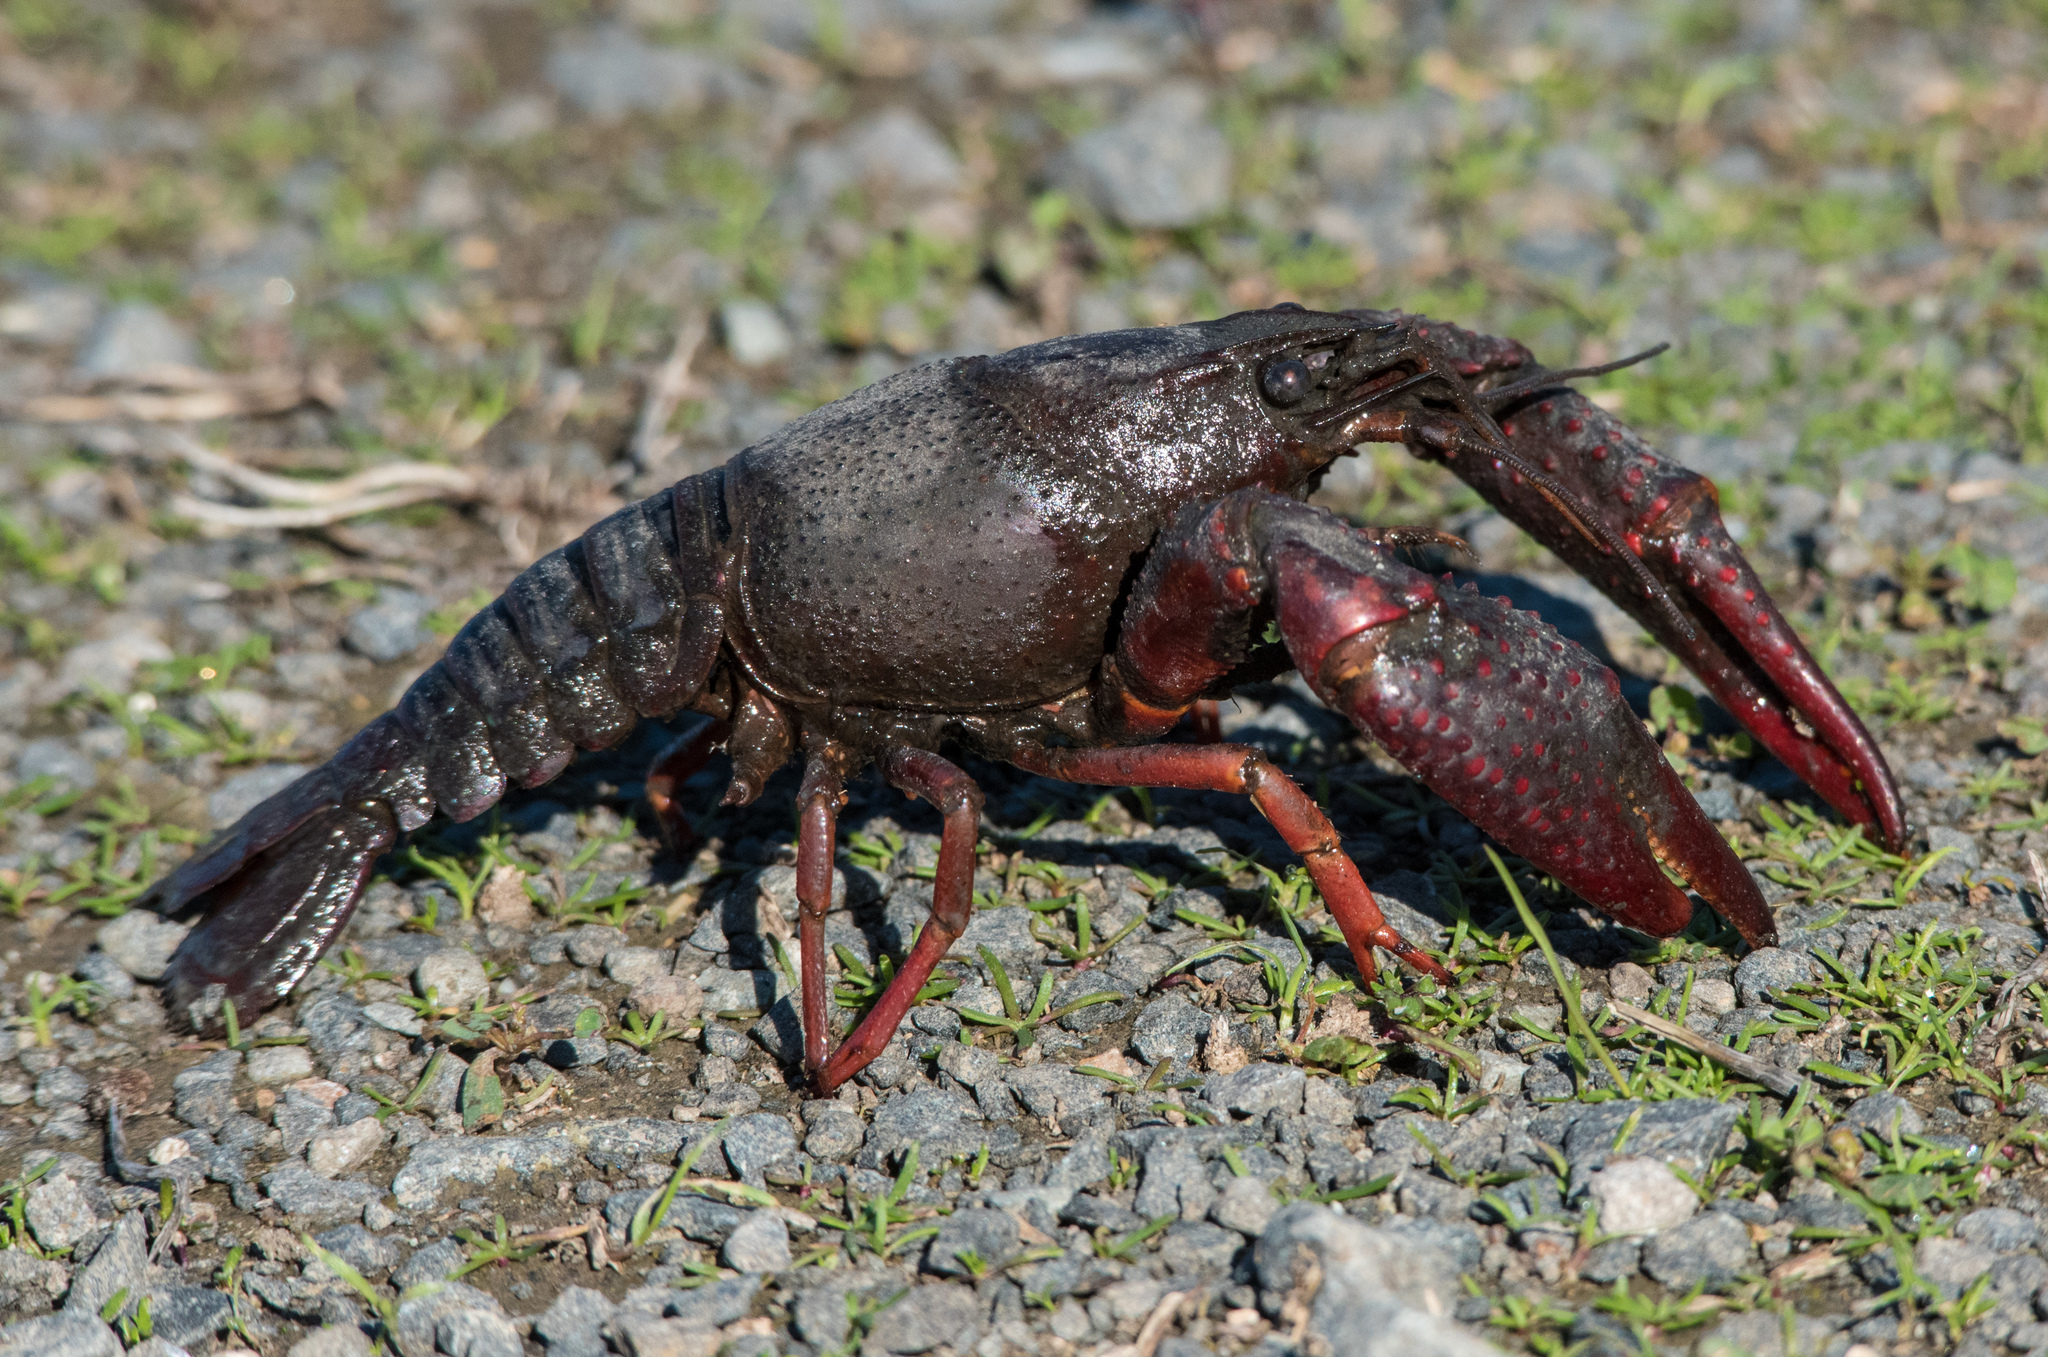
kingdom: Animalia
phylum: Arthropoda
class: Malacostraca
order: Decapoda
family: Cambaridae
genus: Procambarus
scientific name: Procambarus clarkii
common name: Red swamp crayfish
